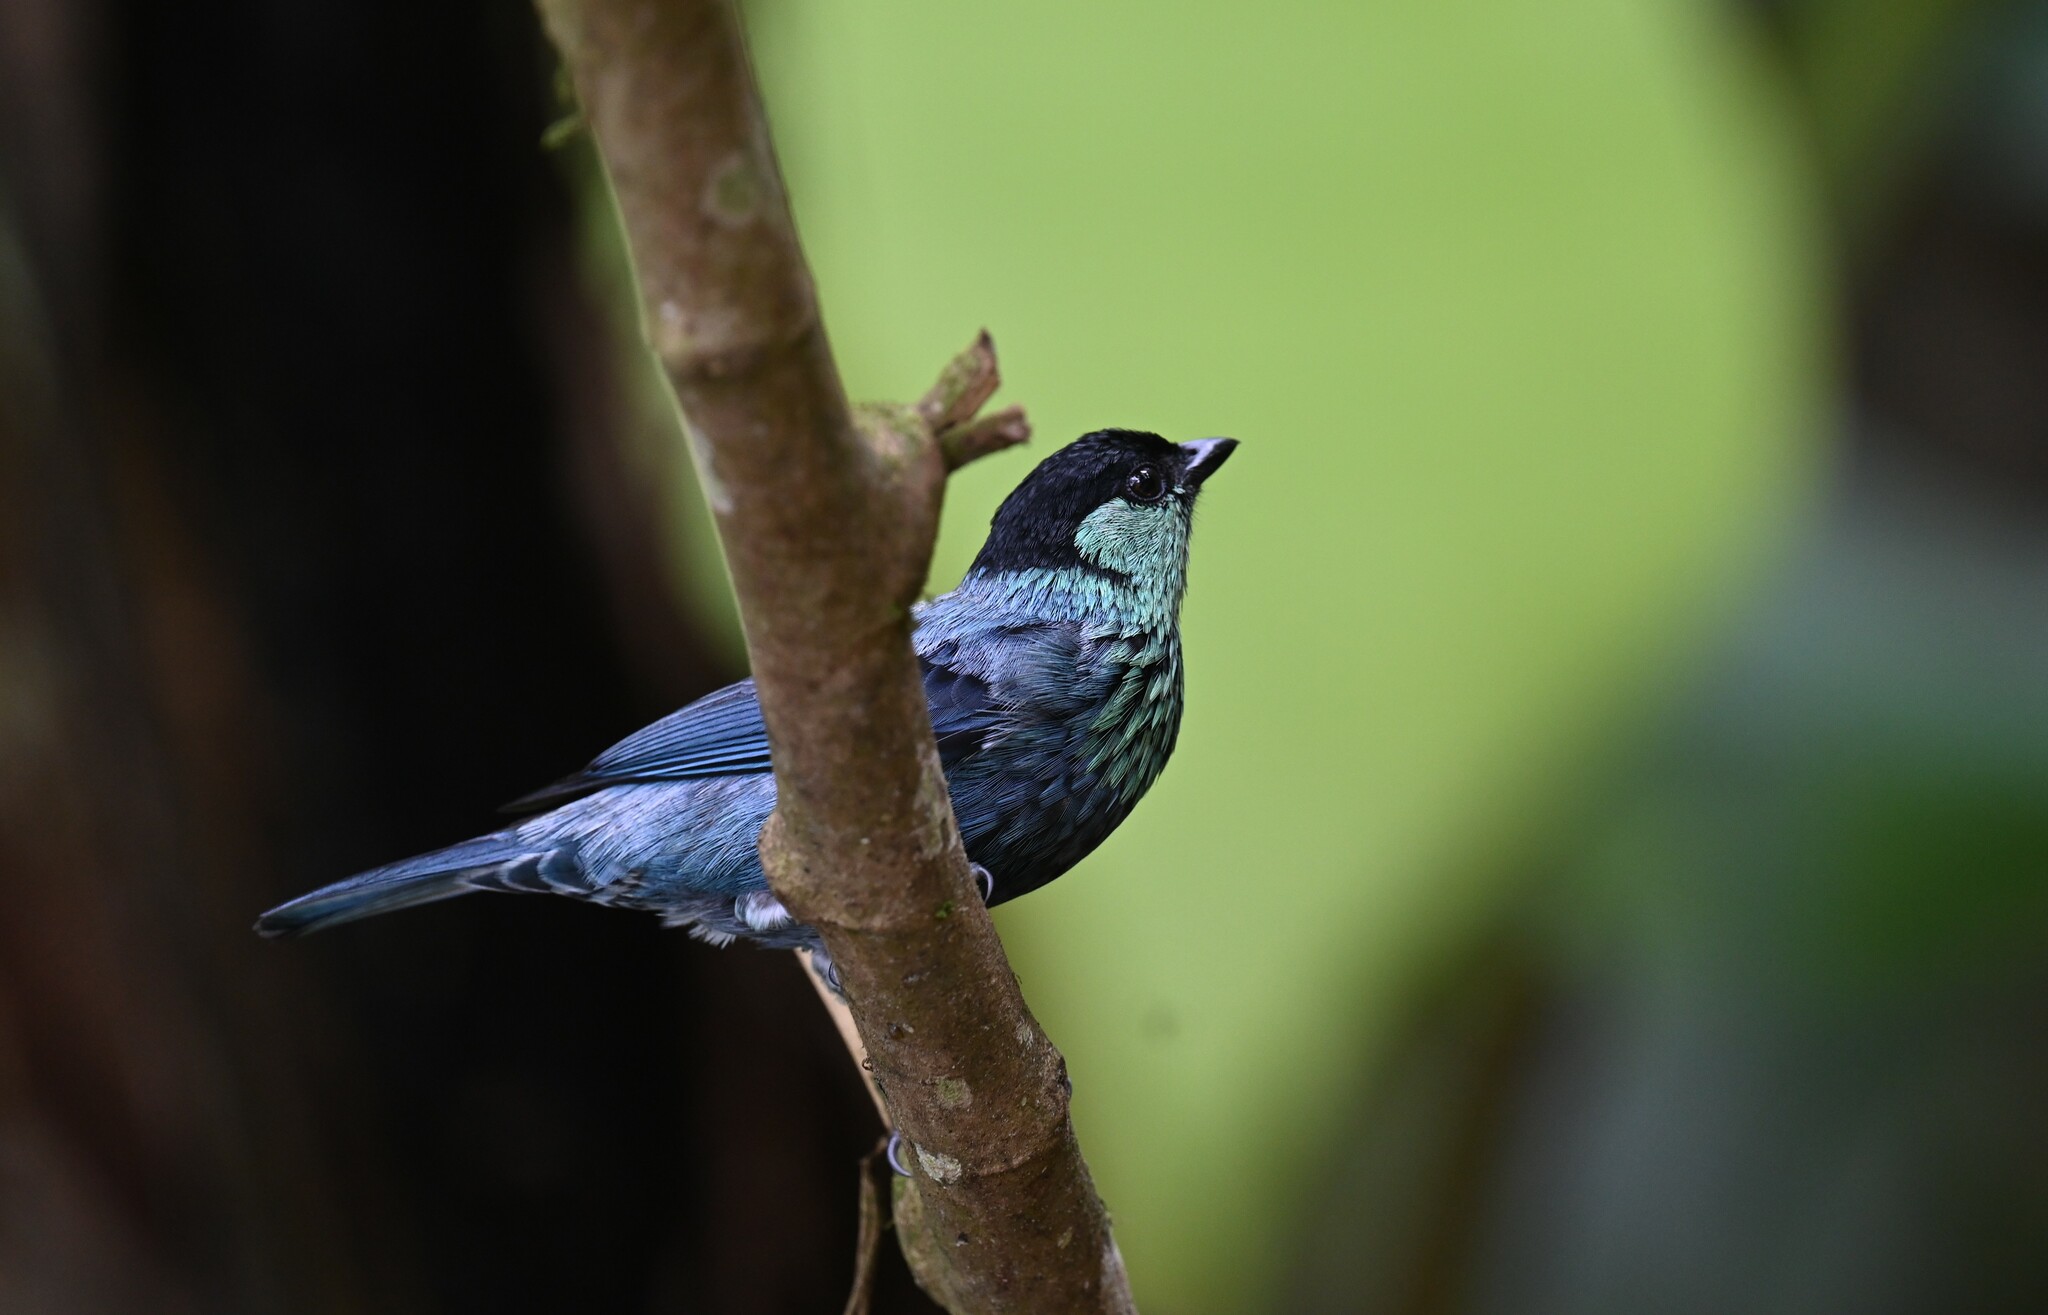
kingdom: Animalia
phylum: Chordata
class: Aves
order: Passeriformes
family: Thraupidae
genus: Stilpnia
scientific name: Stilpnia heinei
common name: Black-capped tanager
